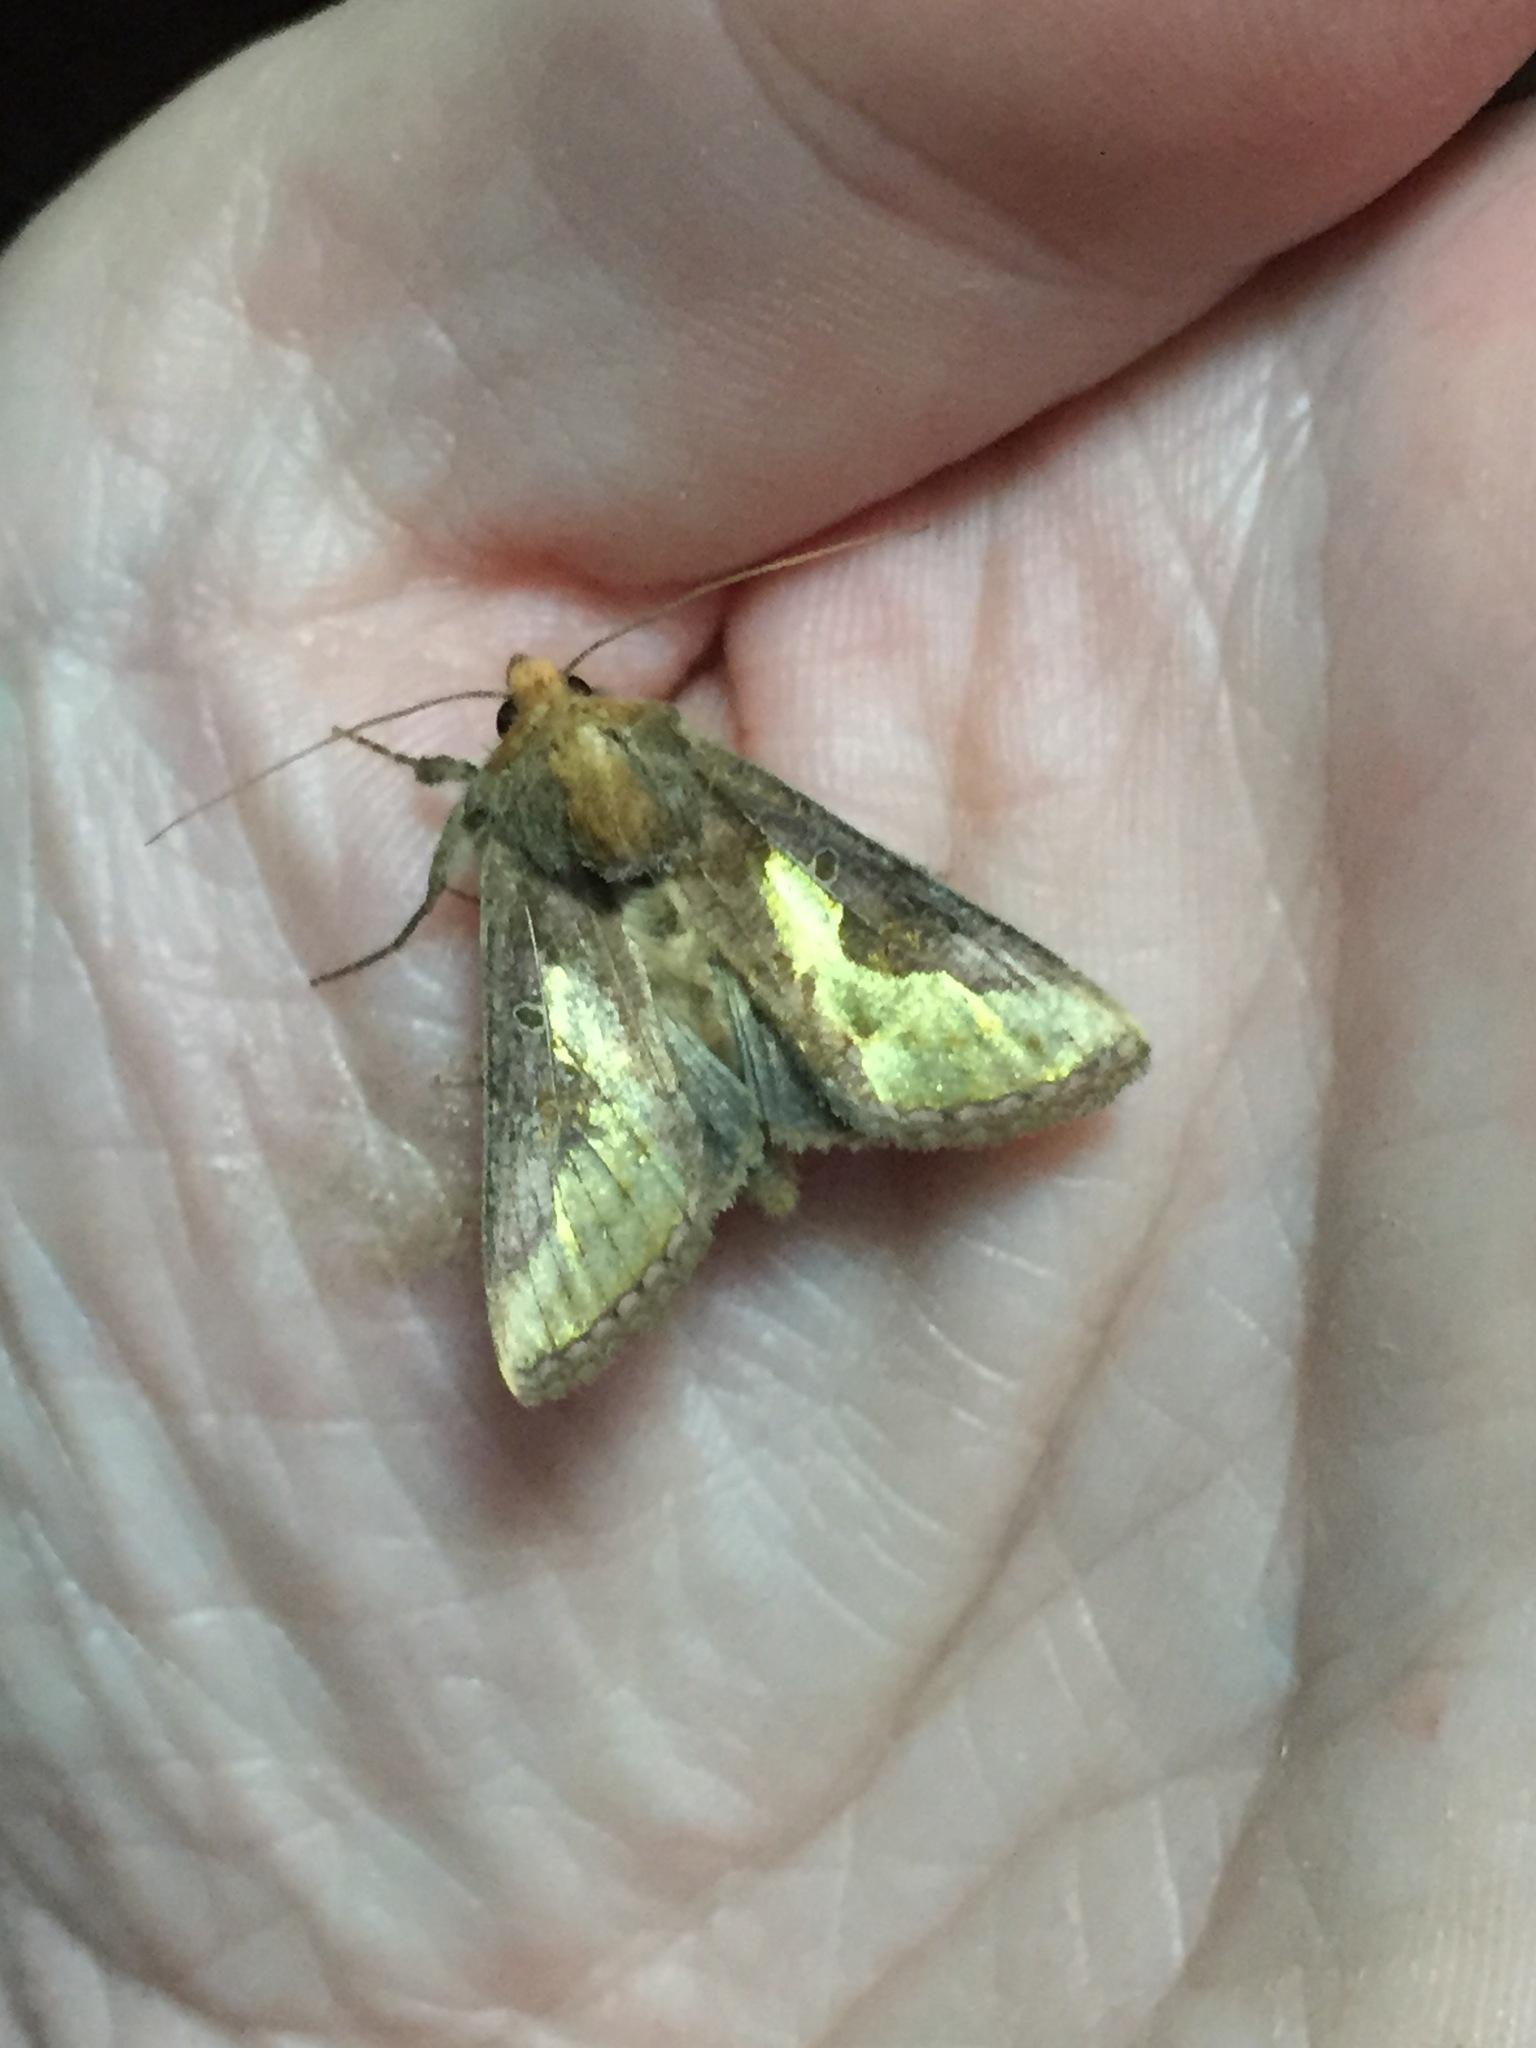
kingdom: Animalia
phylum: Arthropoda
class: Insecta
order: Lepidoptera
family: Noctuidae
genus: Thysanoplusia
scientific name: Thysanoplusia orichalcea
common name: Slender burnished brass, golden plusia
